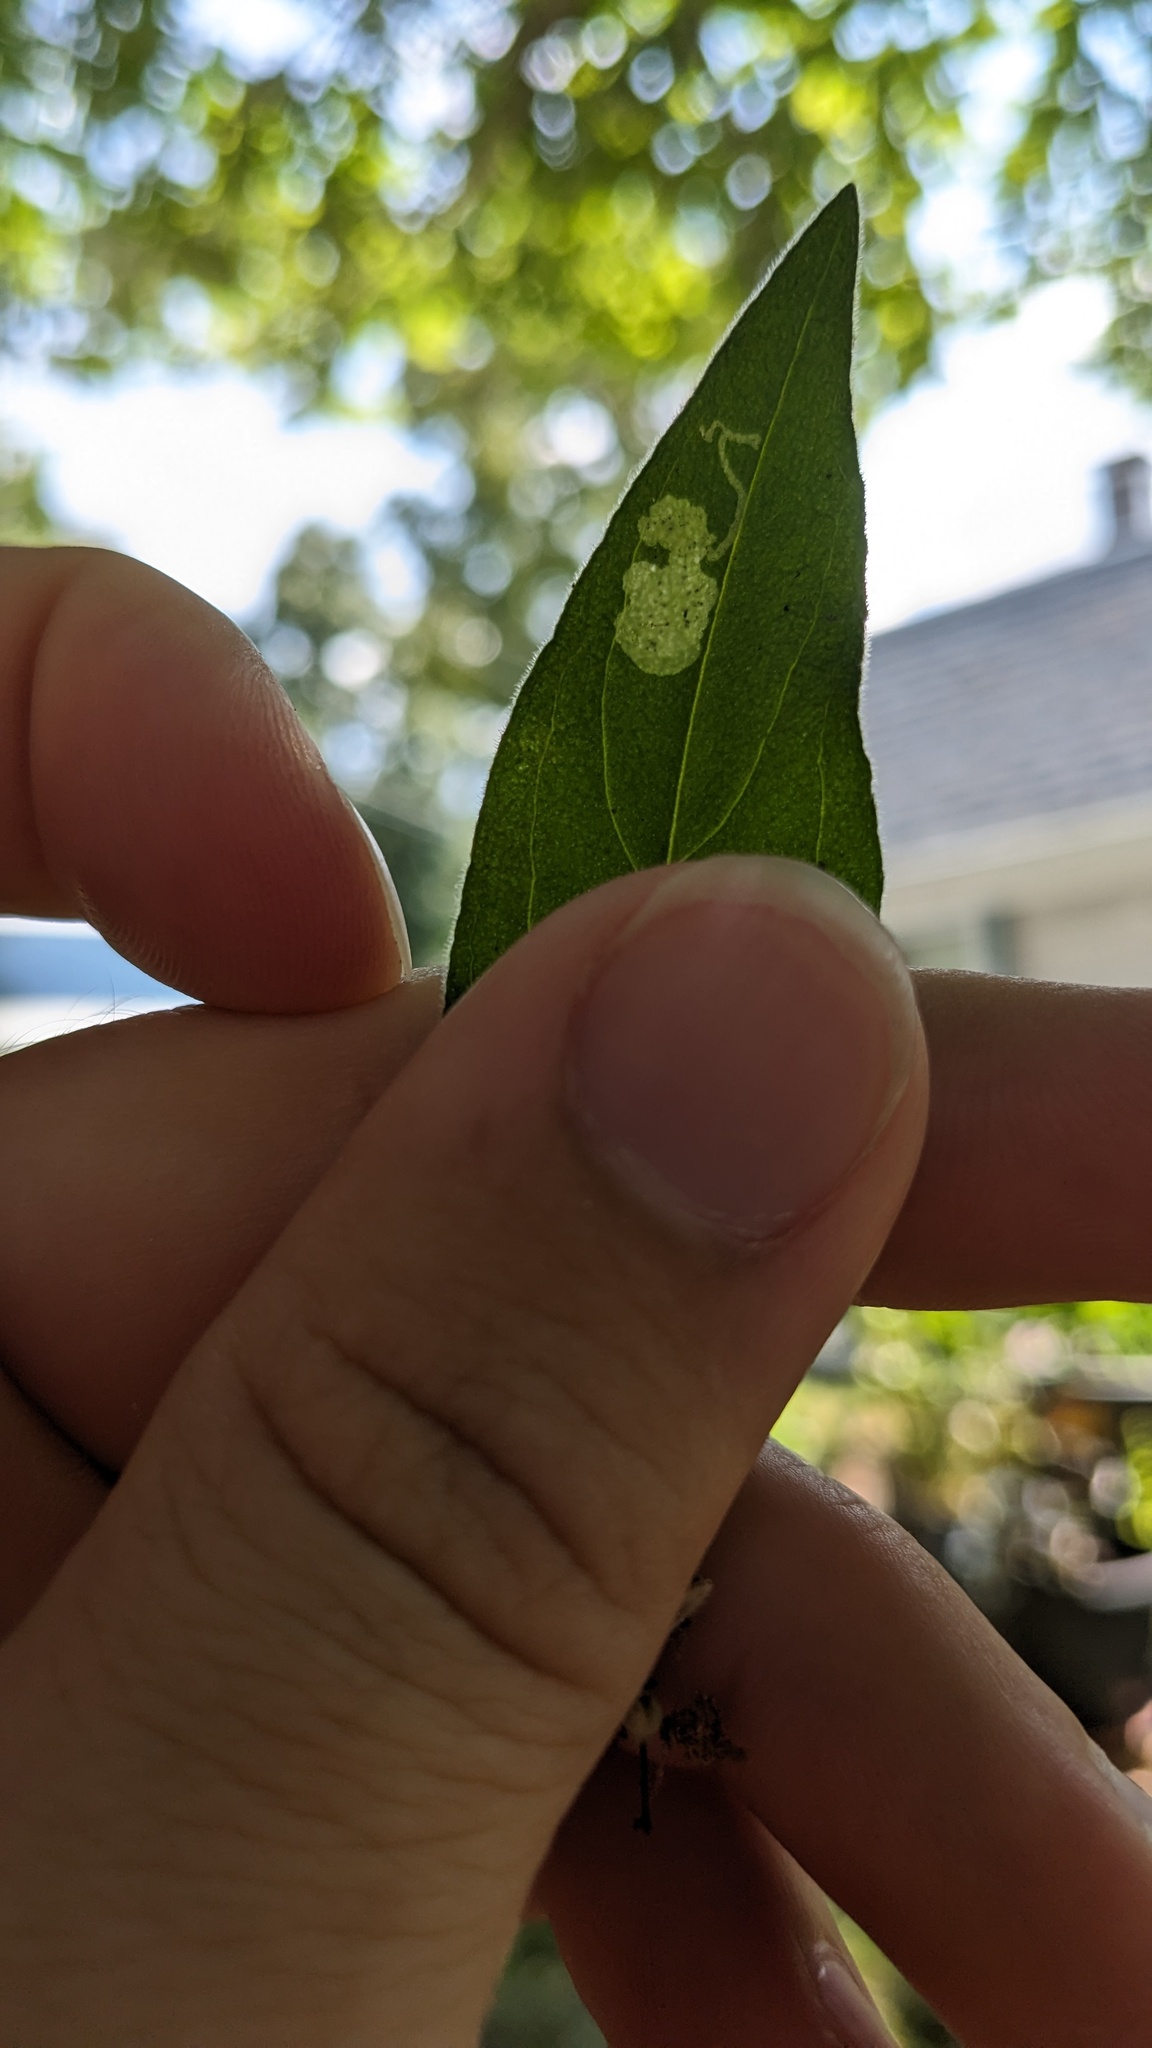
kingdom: Animalia
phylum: Arthropoda
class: Insecta
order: Diptera
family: Agromyzidae
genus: Amauromyza
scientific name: Amauromyza flavifrons
